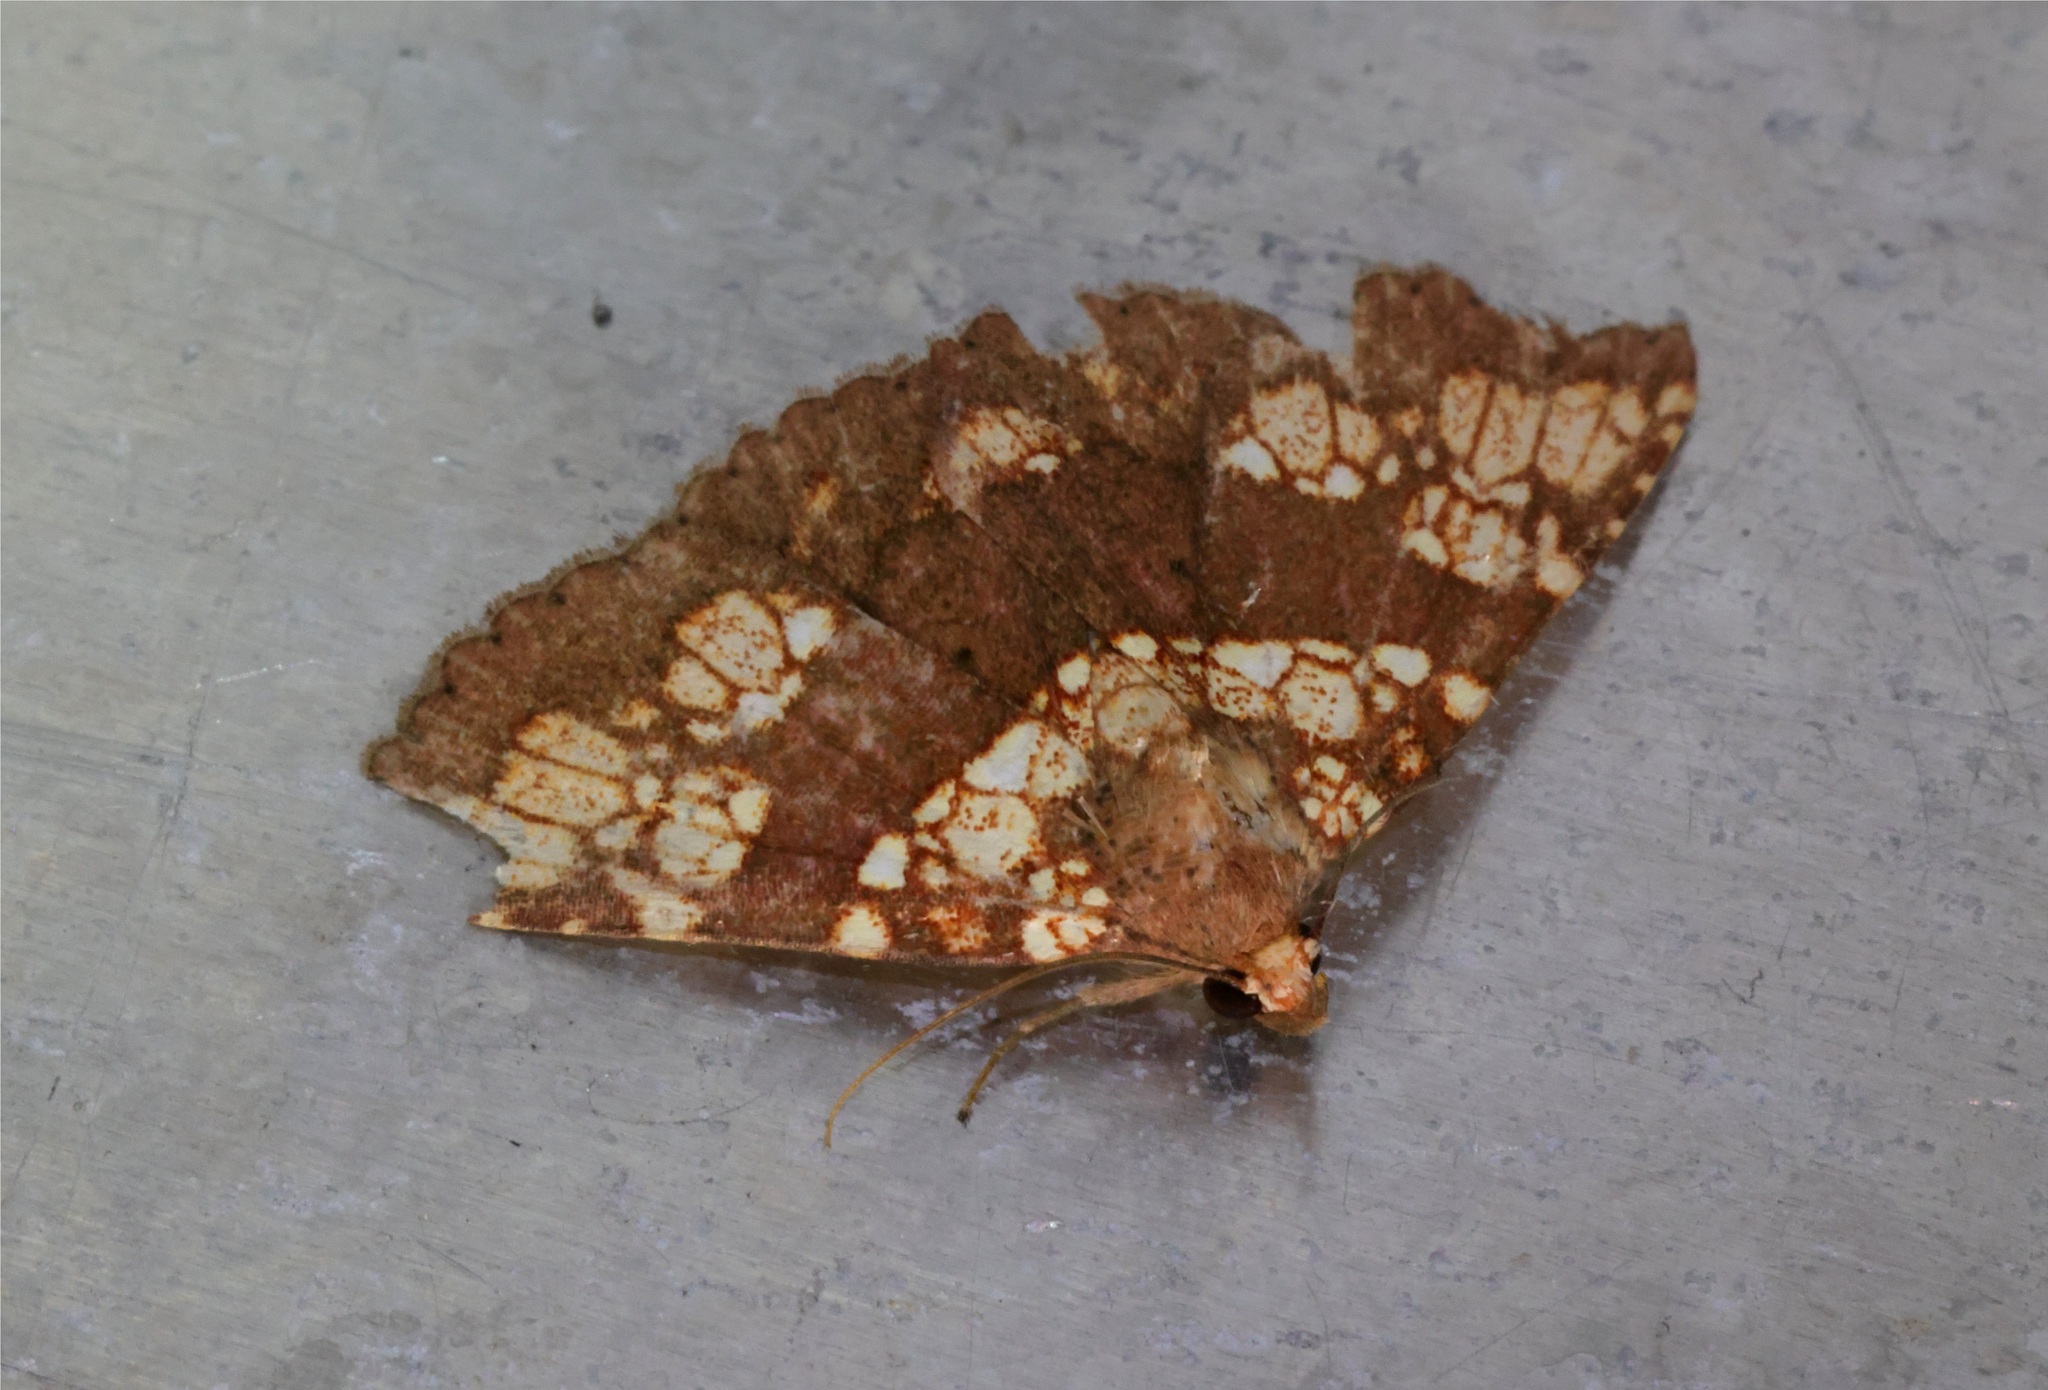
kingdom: Animalia
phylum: Arthropoda
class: Insecta
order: Lepidoptera
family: Erebidae
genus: Saroba
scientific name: Saroba pustulifera
